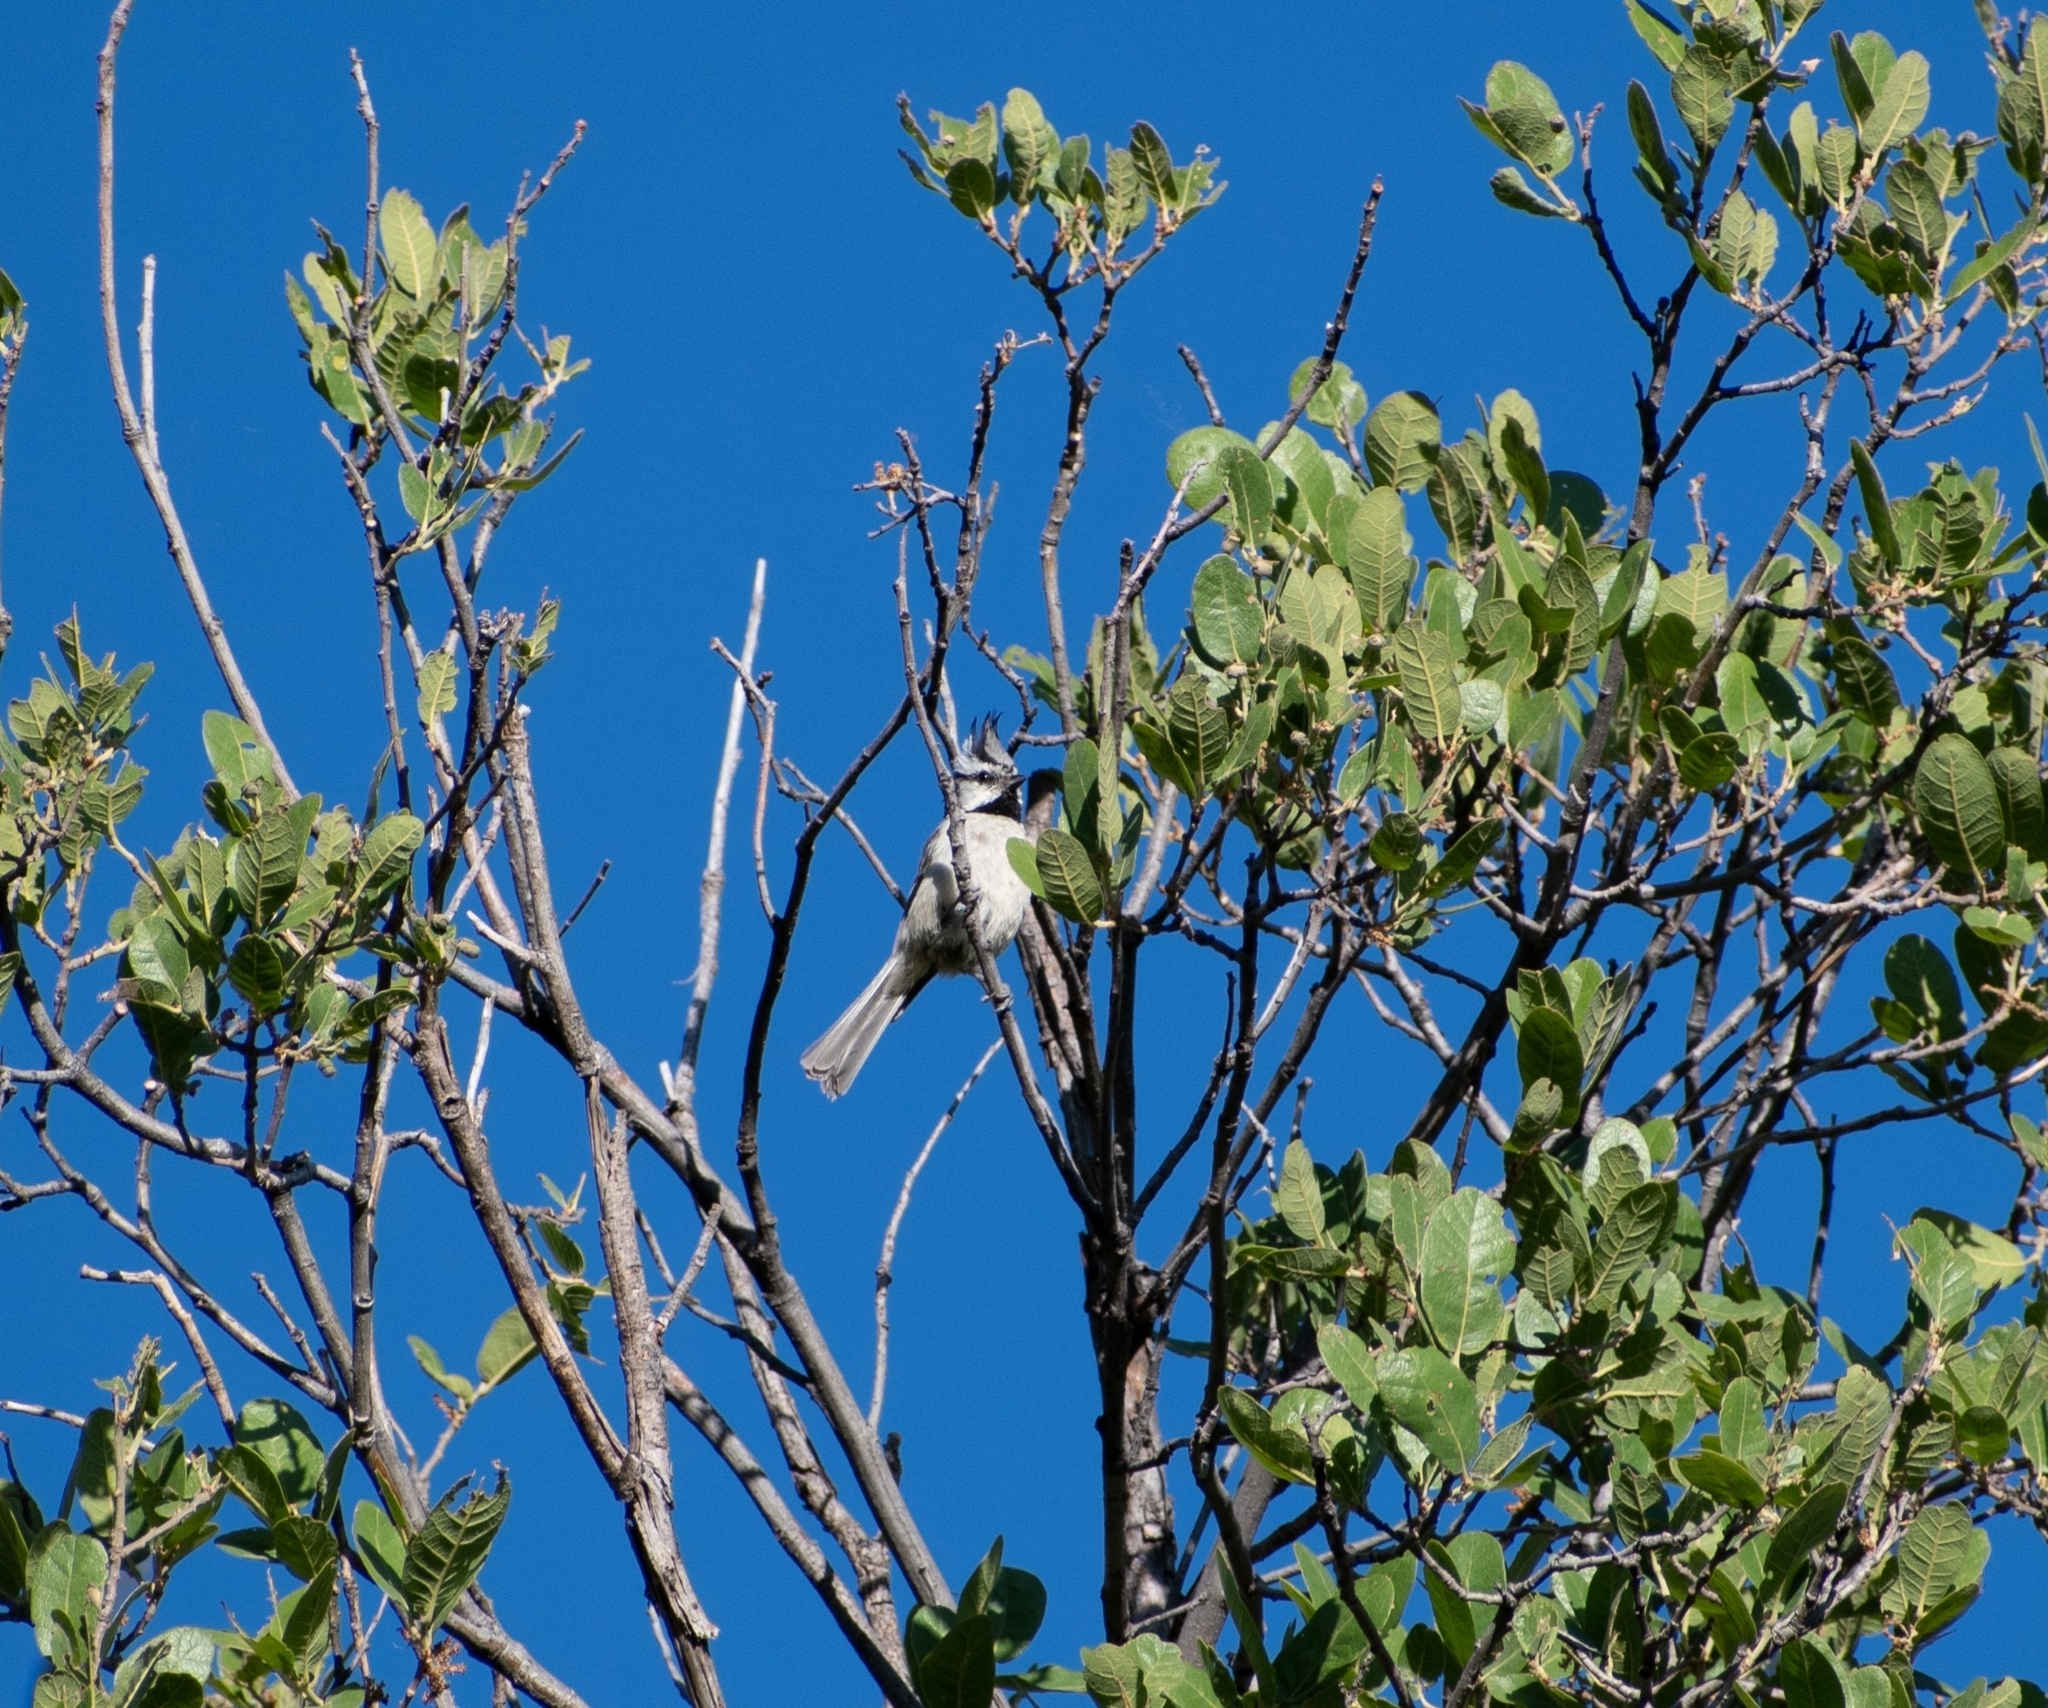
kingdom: Animalia
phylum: Chordata
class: Aves
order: Passeriformes
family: Paridae
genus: Baeolophus
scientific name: Baeolophus wollweberi
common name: Bridled titmouse
